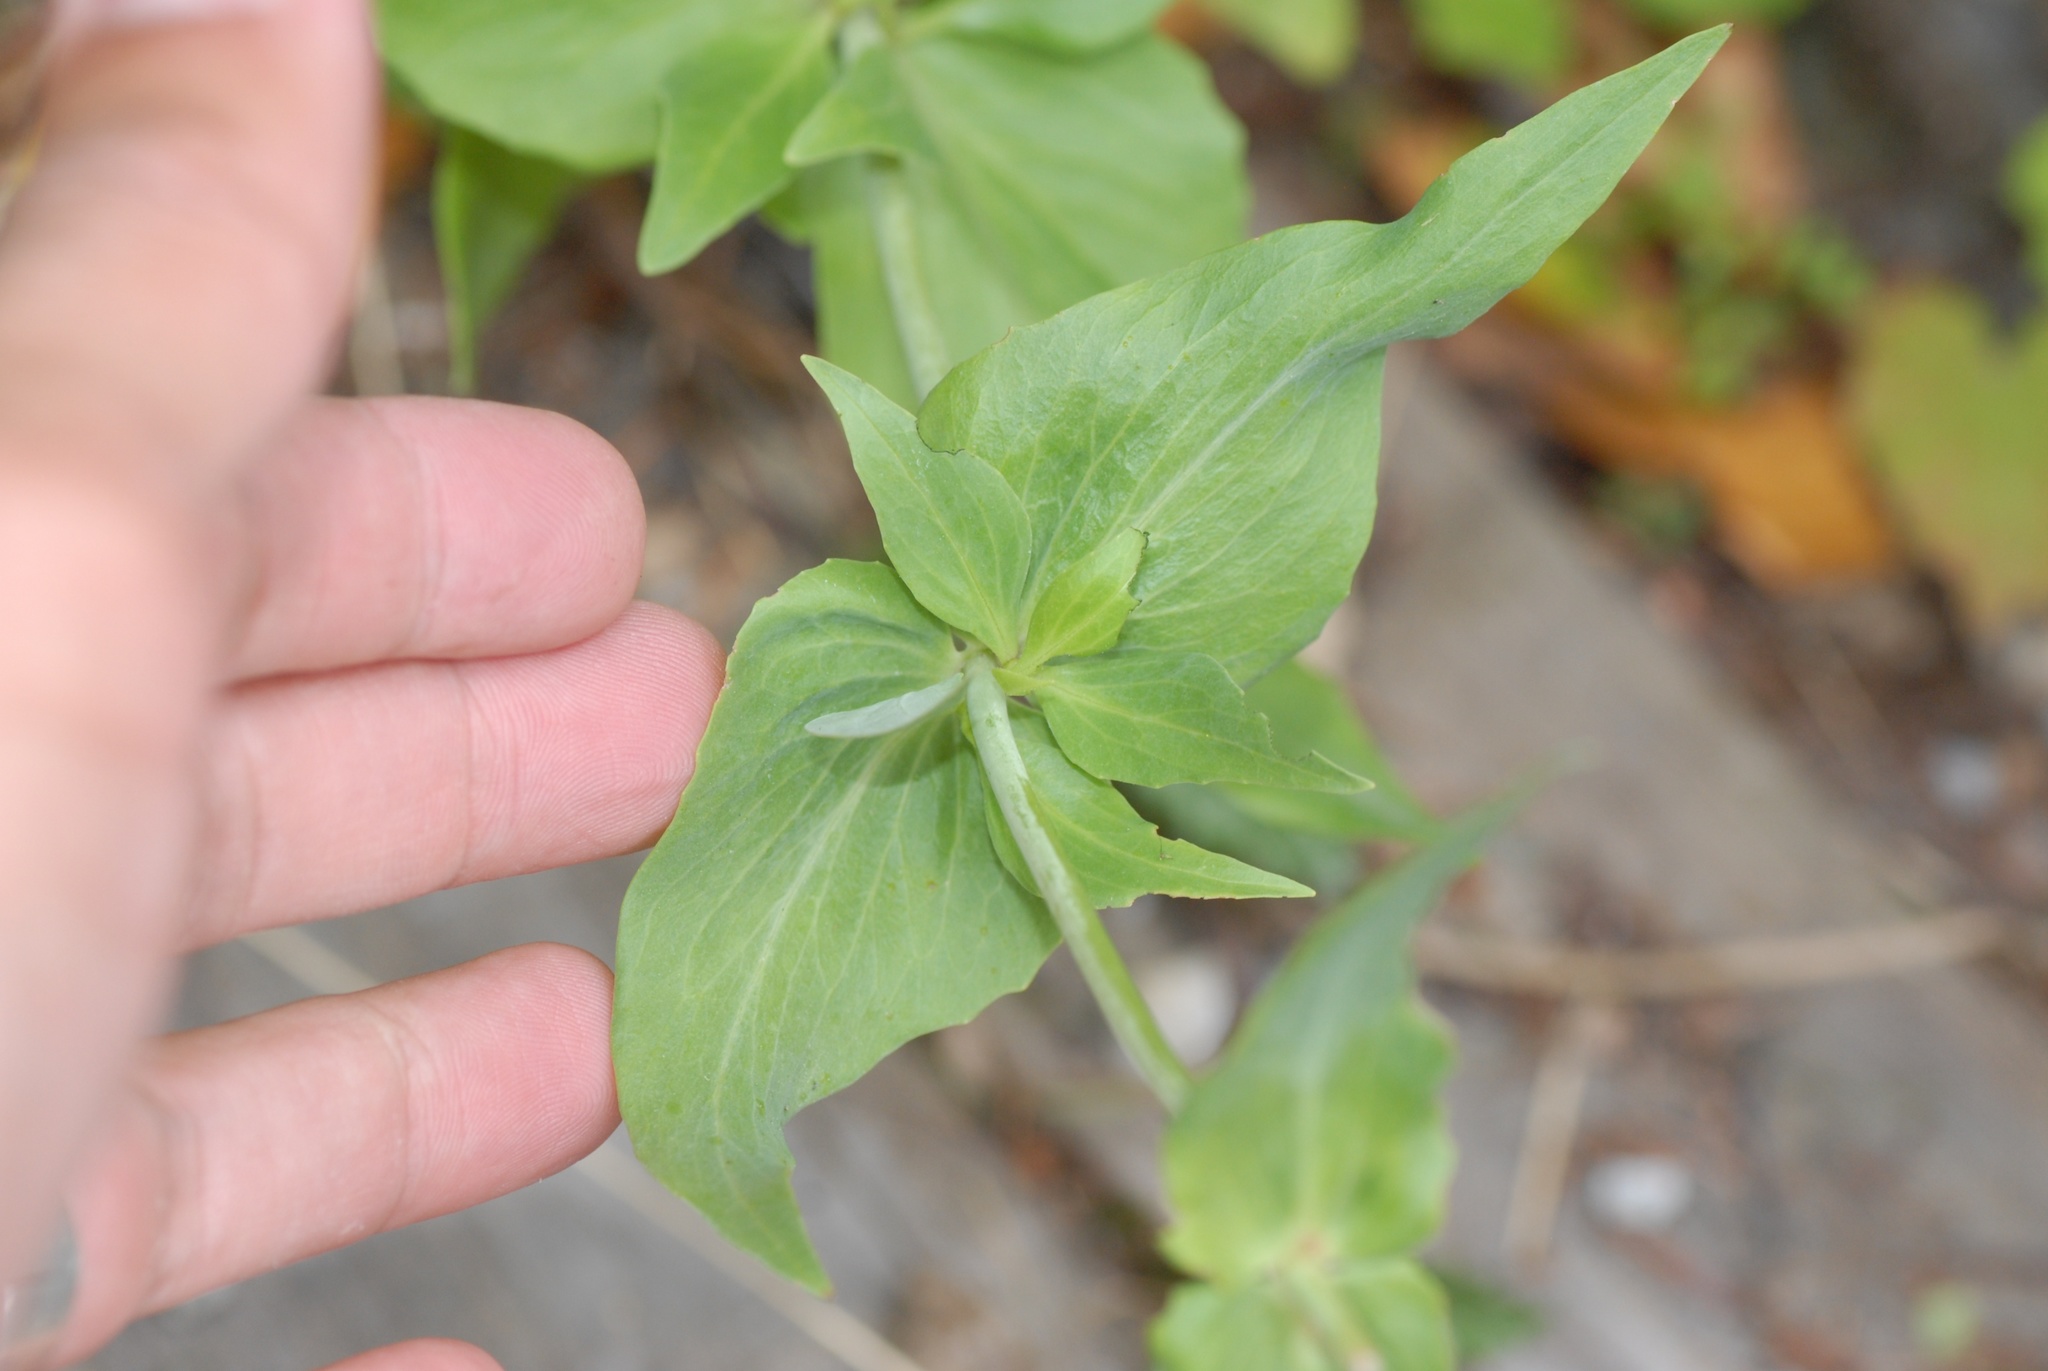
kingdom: Plantae
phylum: Tracheophyta
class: Magnoliopsida
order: Dipsacales
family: Caprifoliaceae
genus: Centranthus
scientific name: Centranthus ruber
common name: Red valerian
